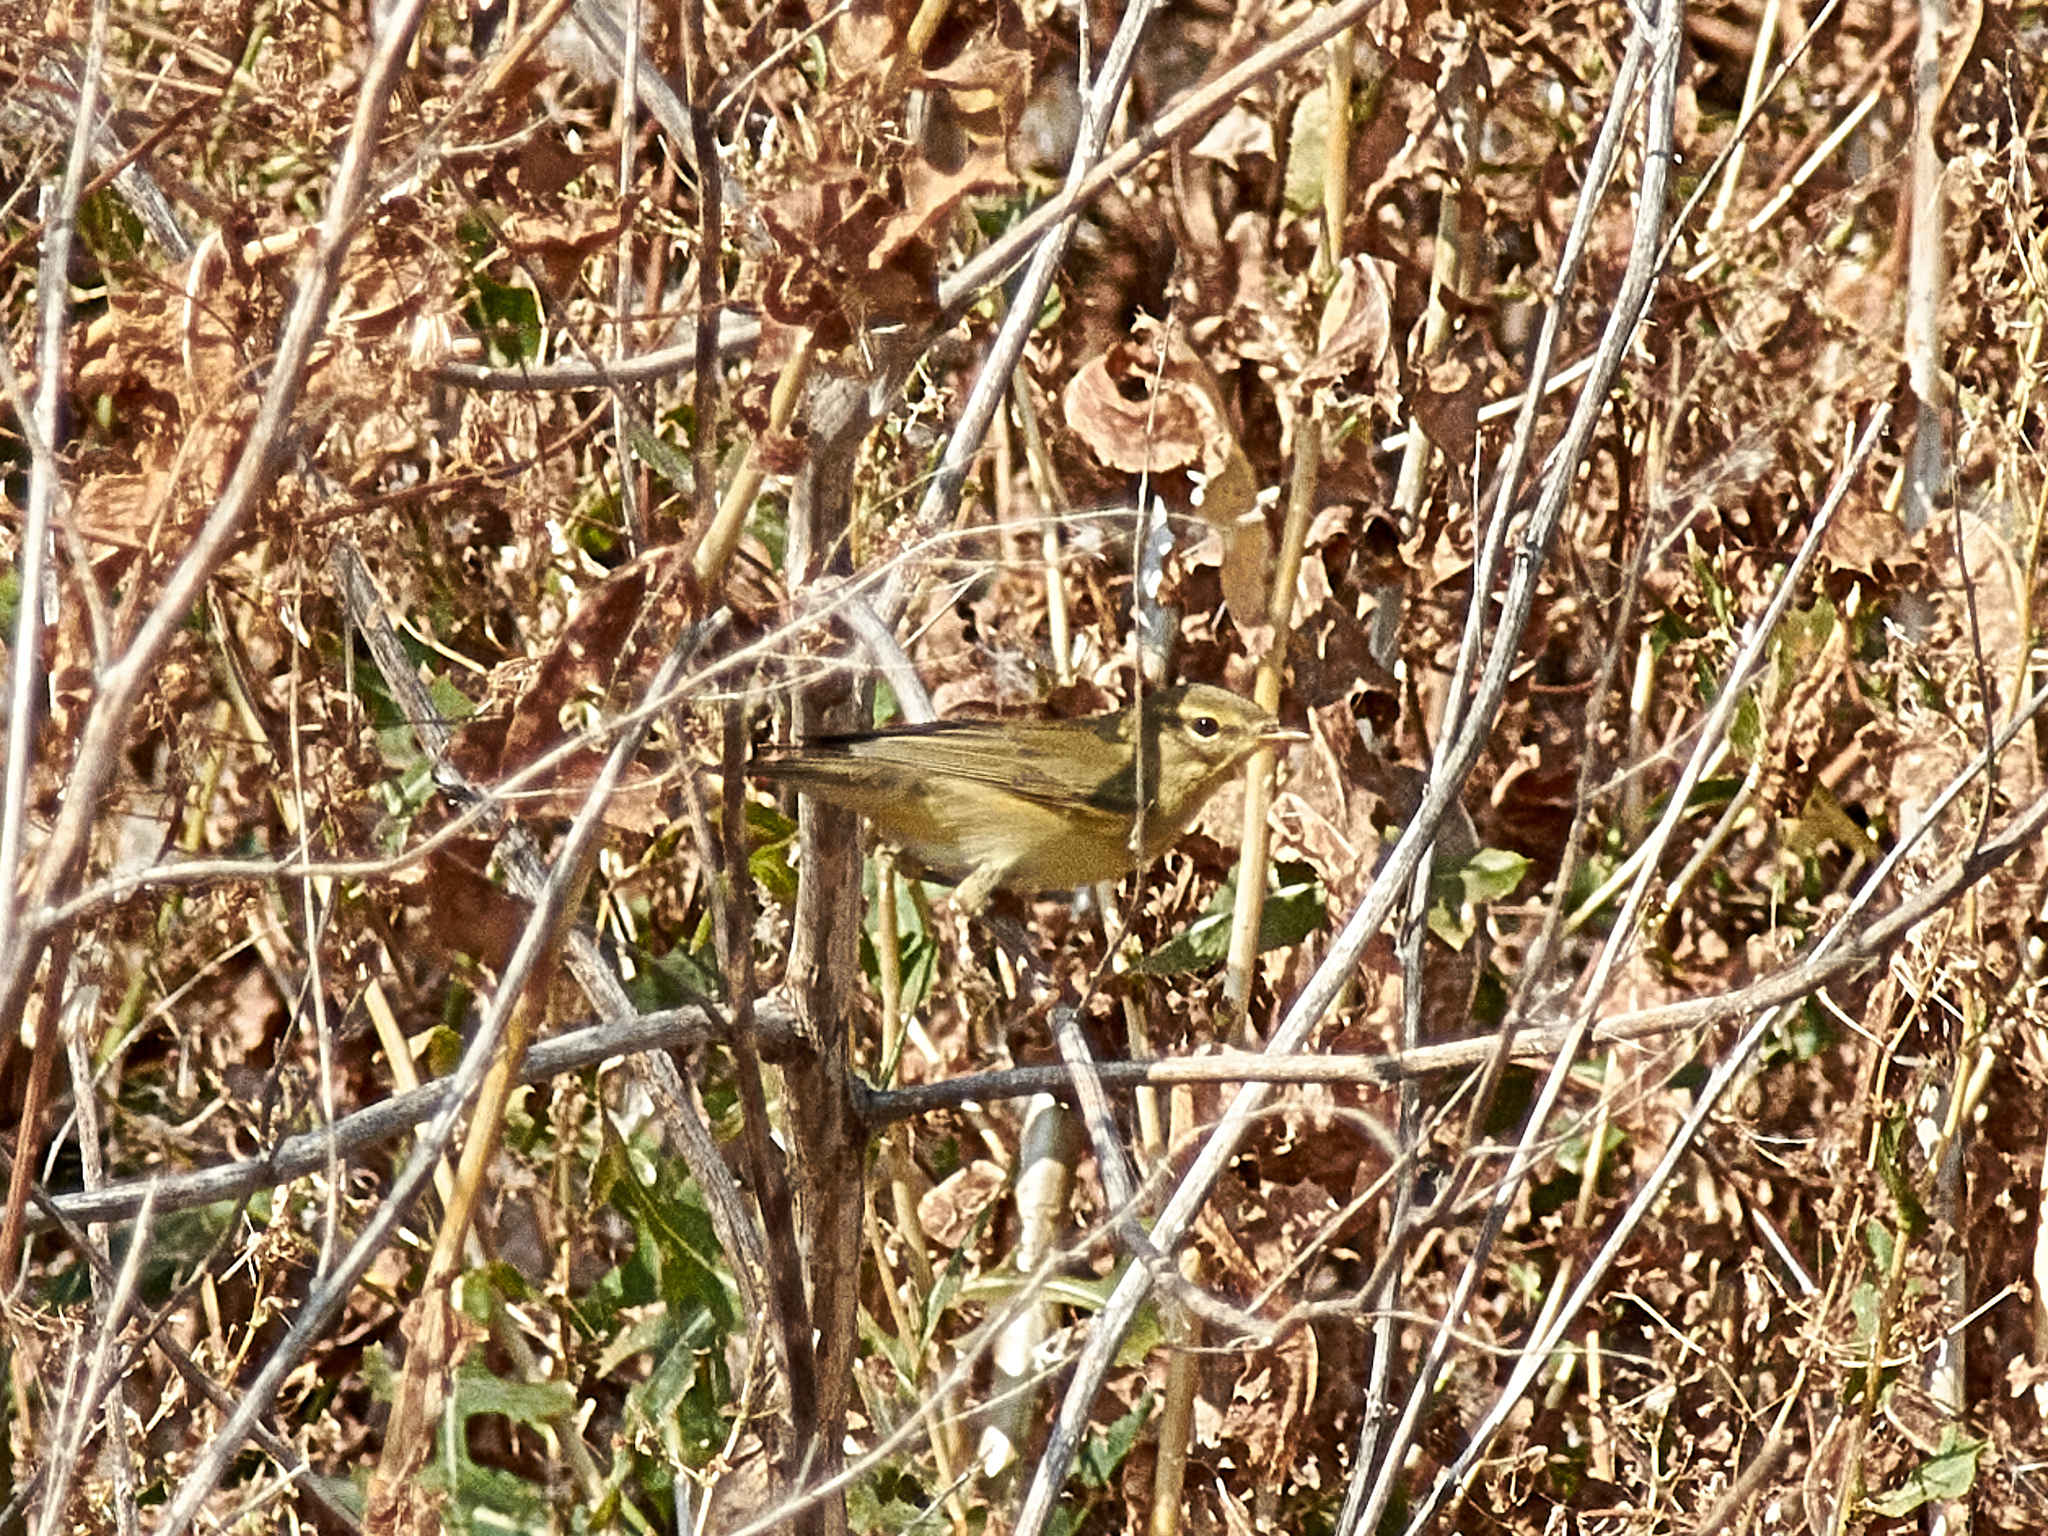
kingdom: Animalia
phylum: Chordata
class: Aves
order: Passeriformes
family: Phylloscopidae
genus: Phylloscopus
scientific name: Phylloscopus collybita
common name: Common chiffchaff
